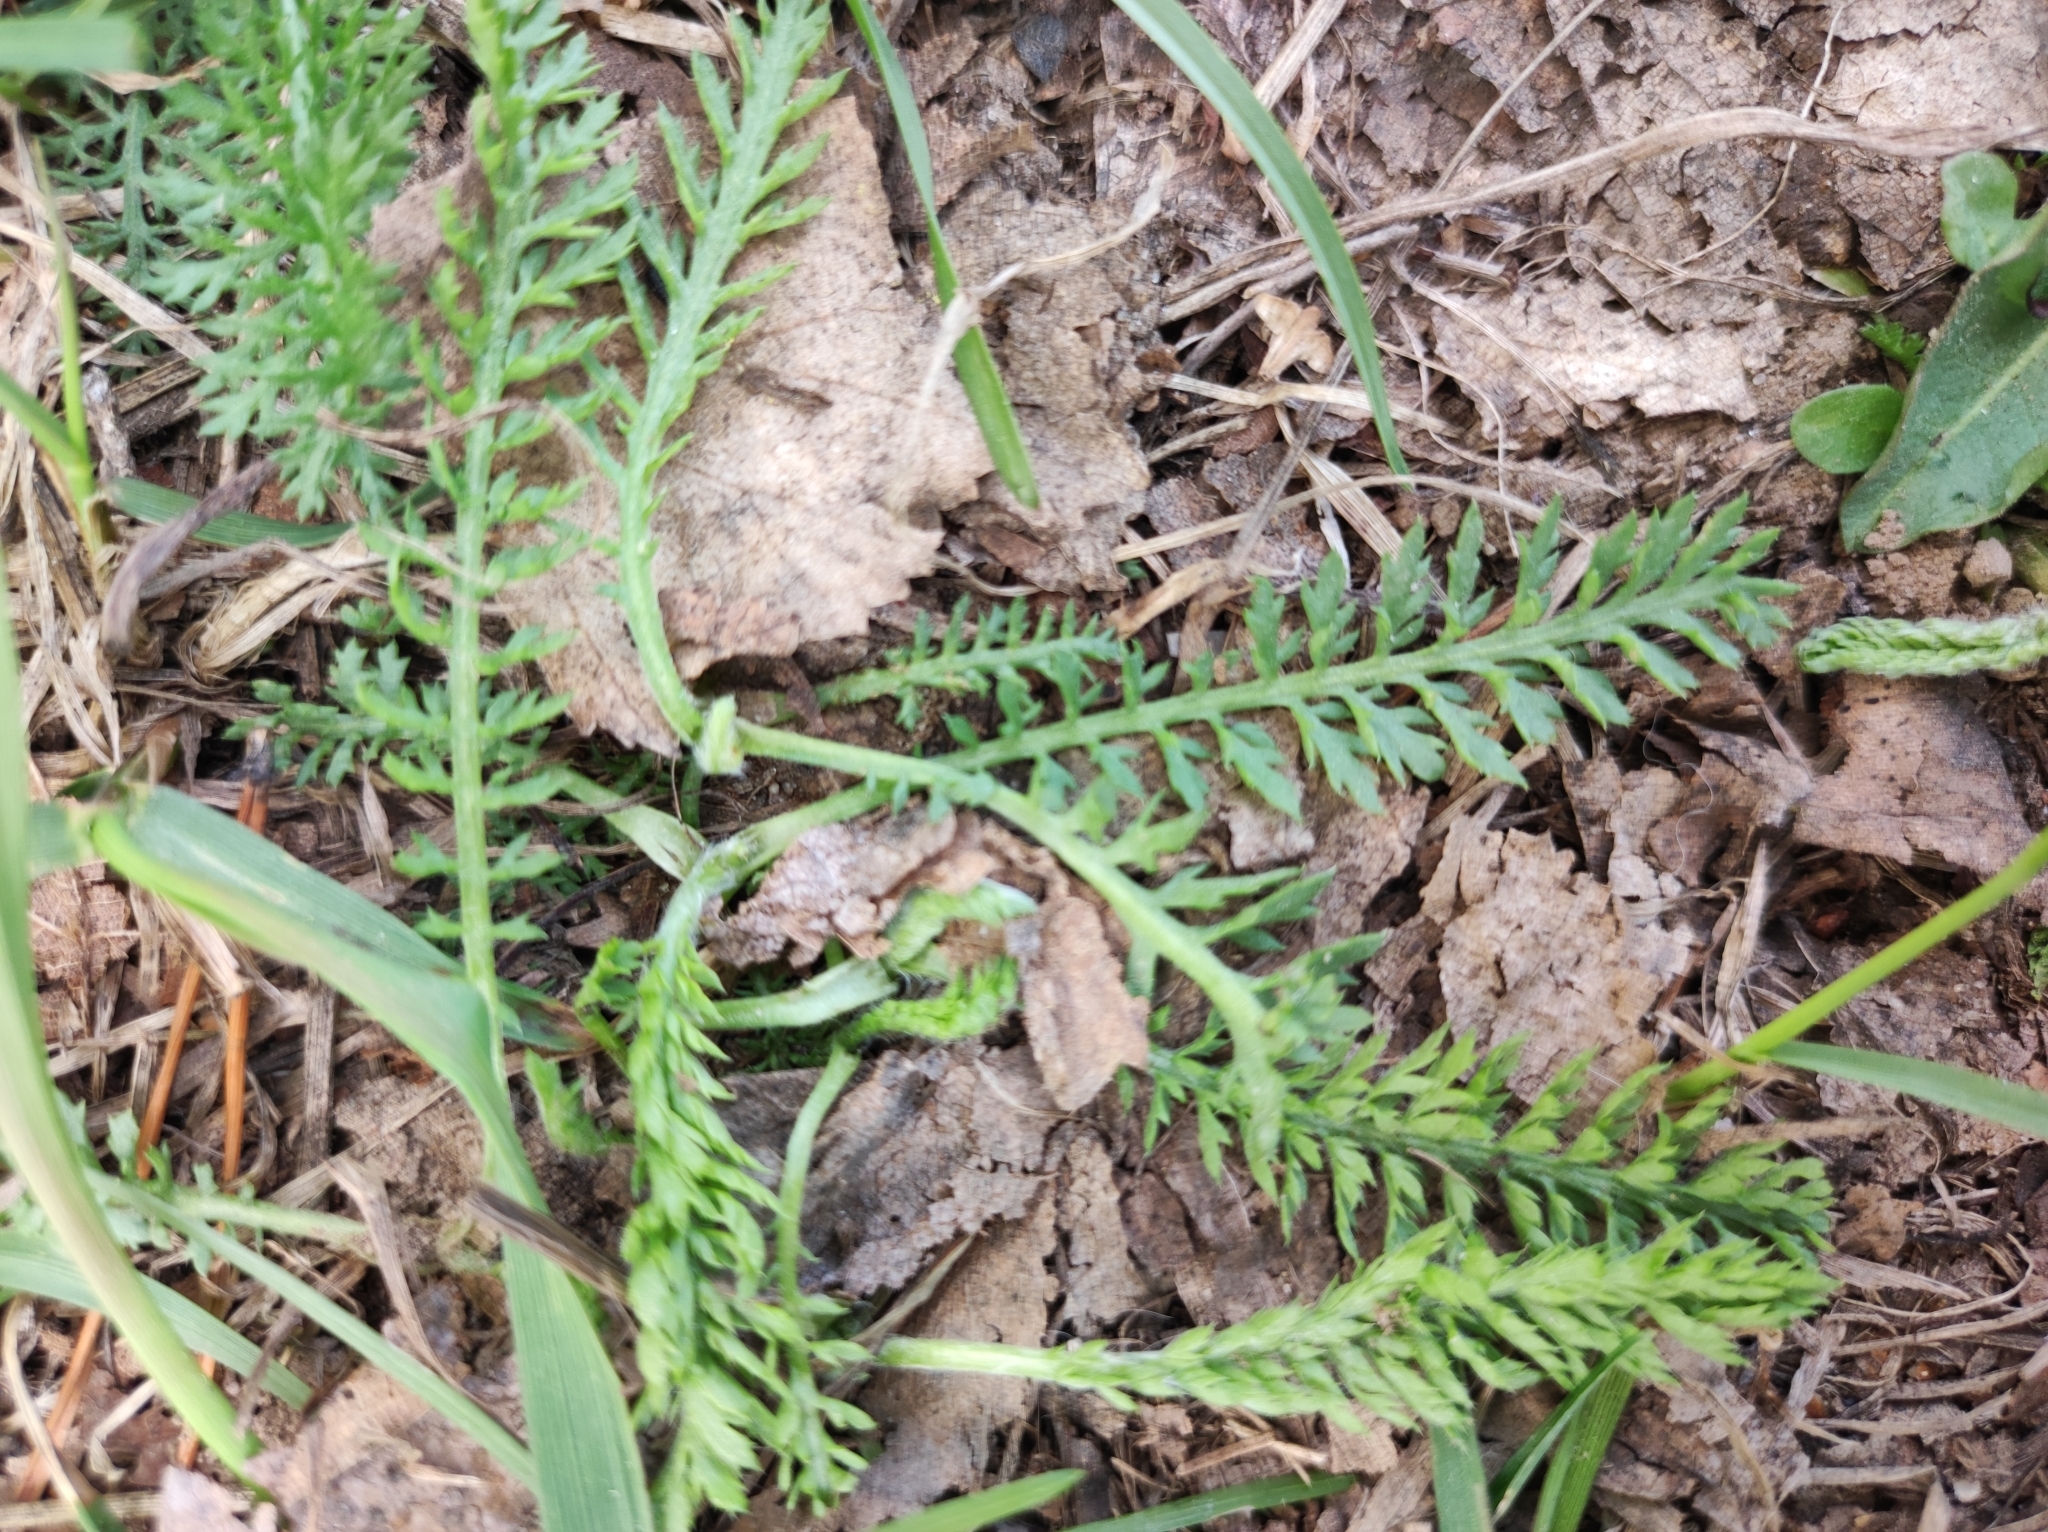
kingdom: Plantae
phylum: Tracheophyta
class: Magnoliopsida
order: Asterales
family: Asteraceae
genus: Achillea
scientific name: Achillea millefolium
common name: Yarrow
